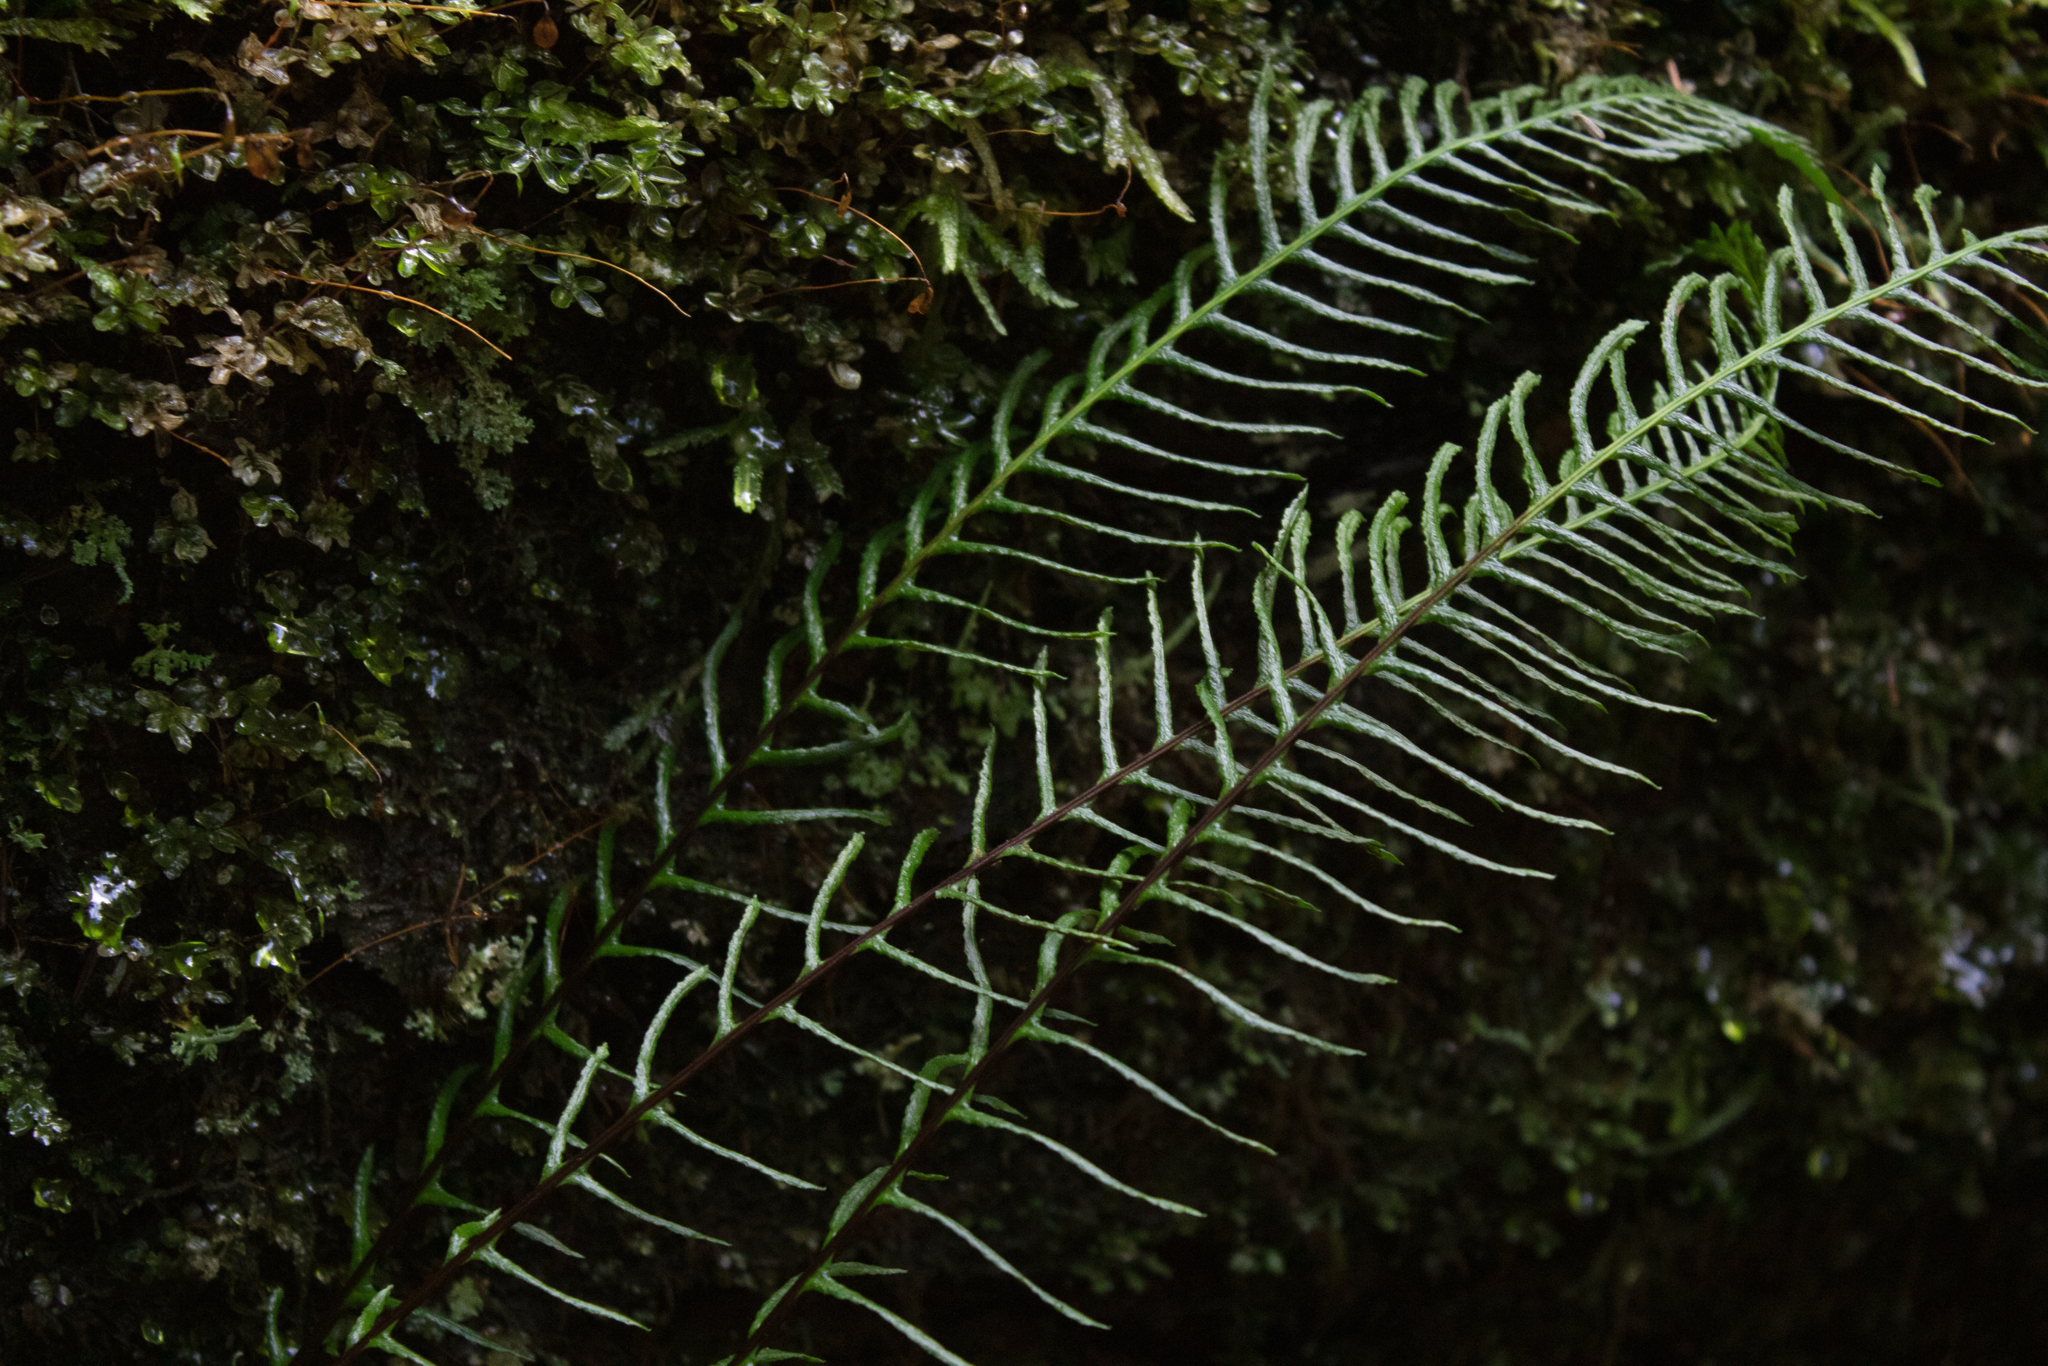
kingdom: Plantae
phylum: Tracheophyta
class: Polypodiopsida
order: Polypodiales
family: Blechnaceae
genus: Struthiopteris
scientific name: Struthiopteris spicant
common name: Deer fern
